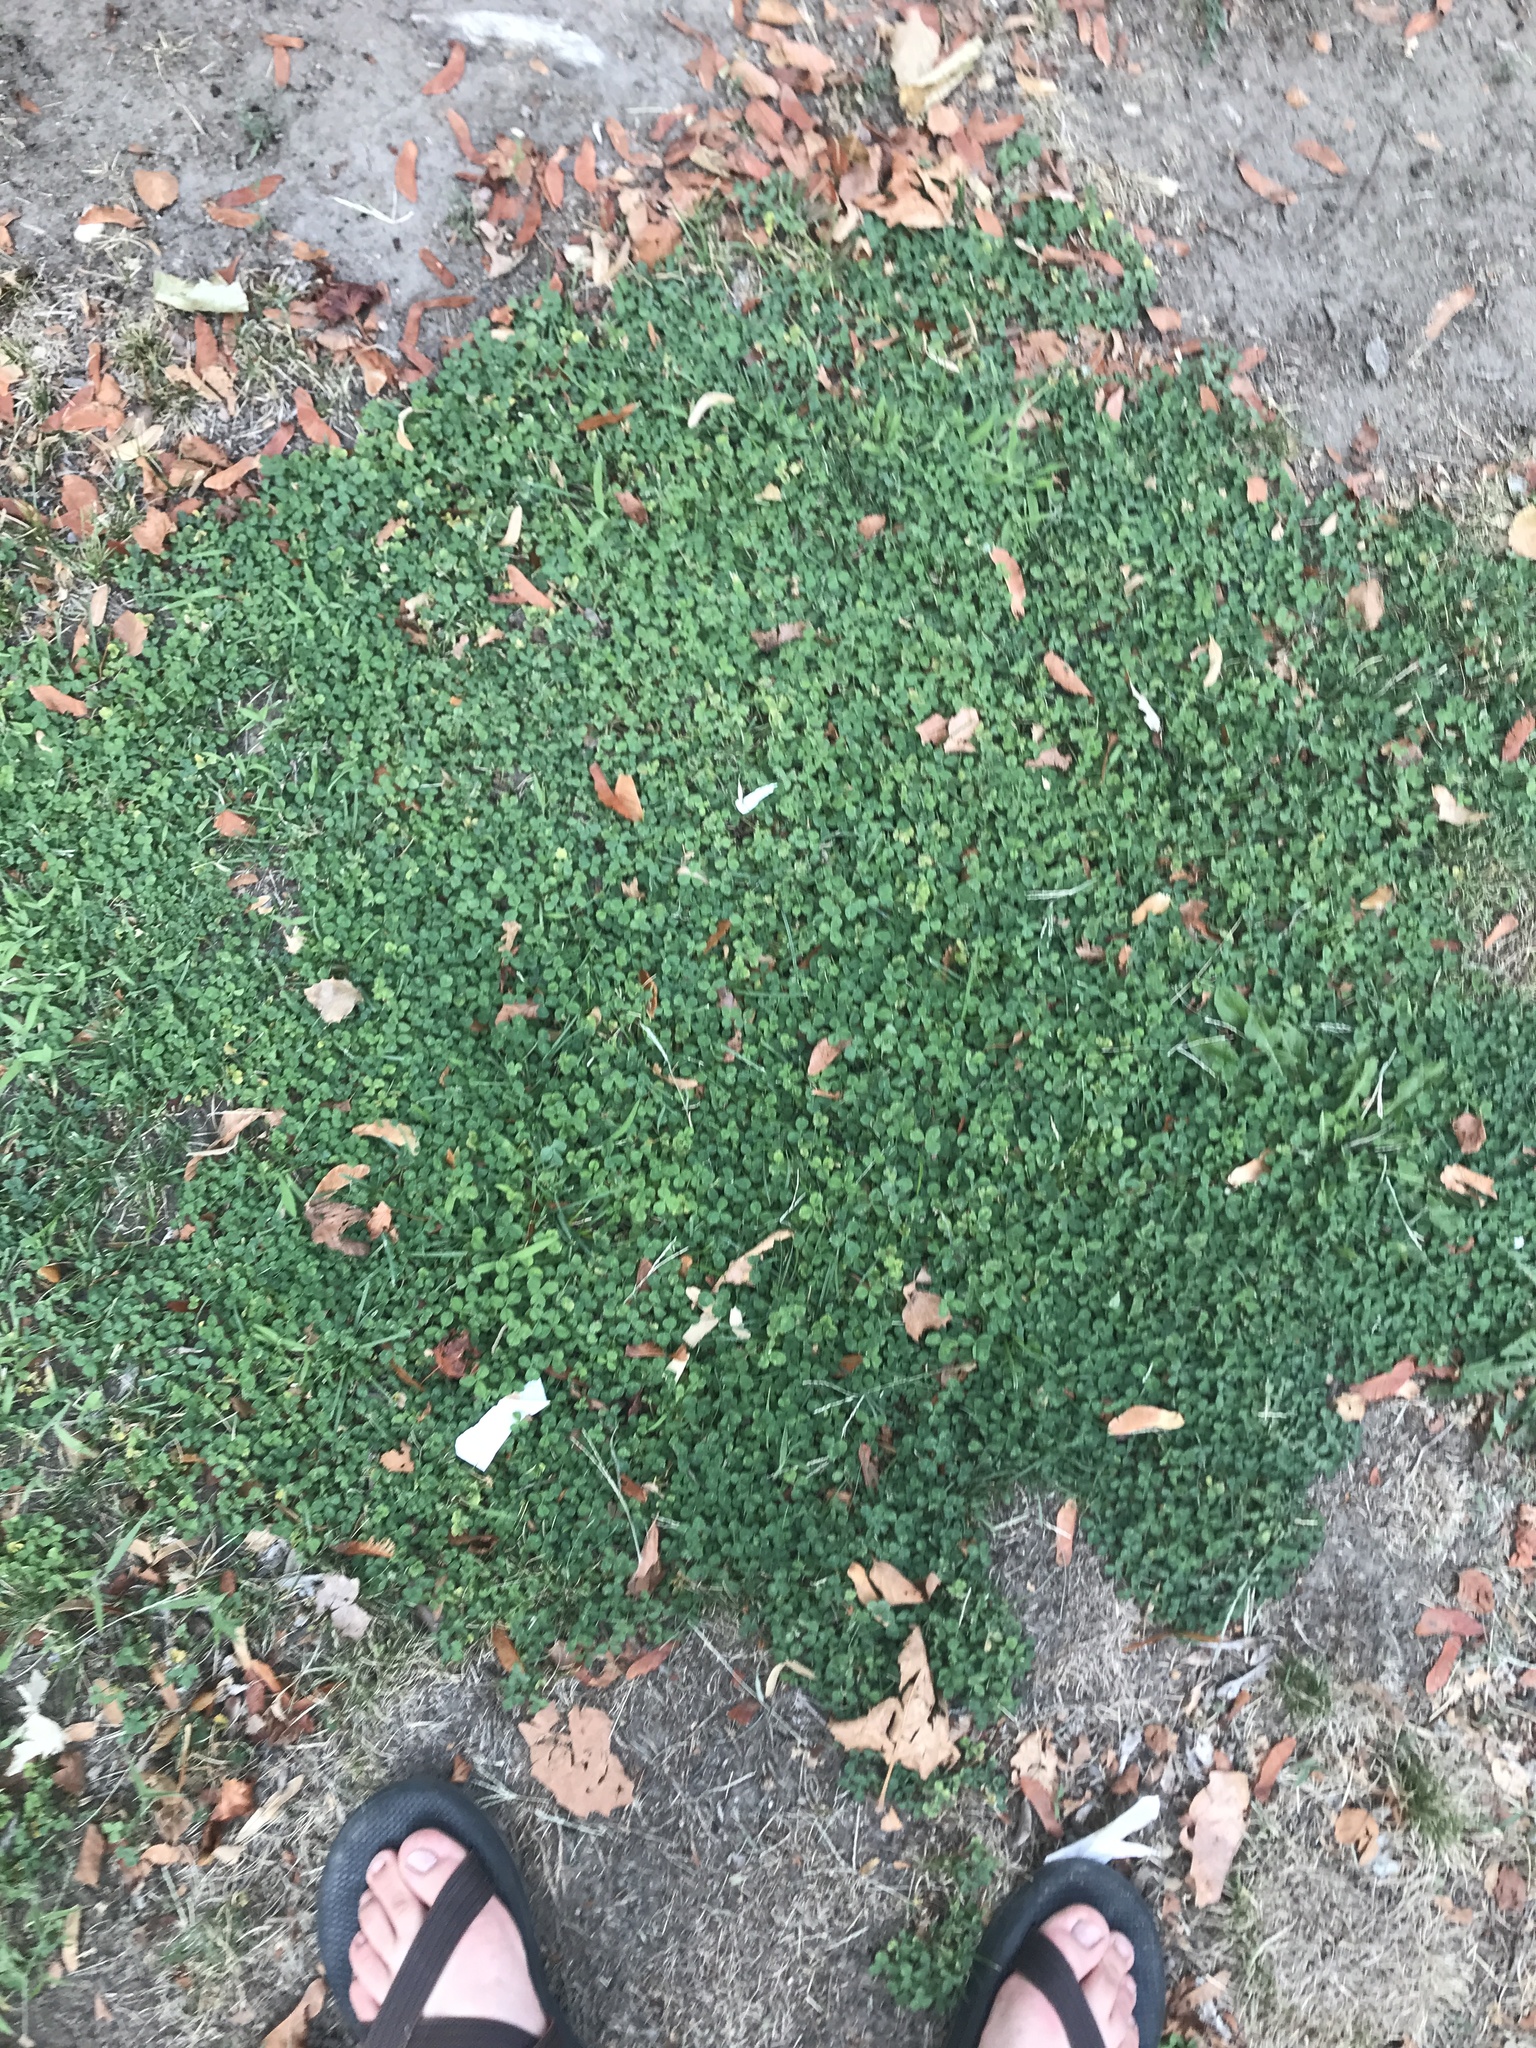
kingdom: Plantae
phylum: Tracheophyta
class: Magnoliopsida
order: Fabales
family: Fabaceae
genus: Trifolium
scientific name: Trifolium repens
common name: White clover
